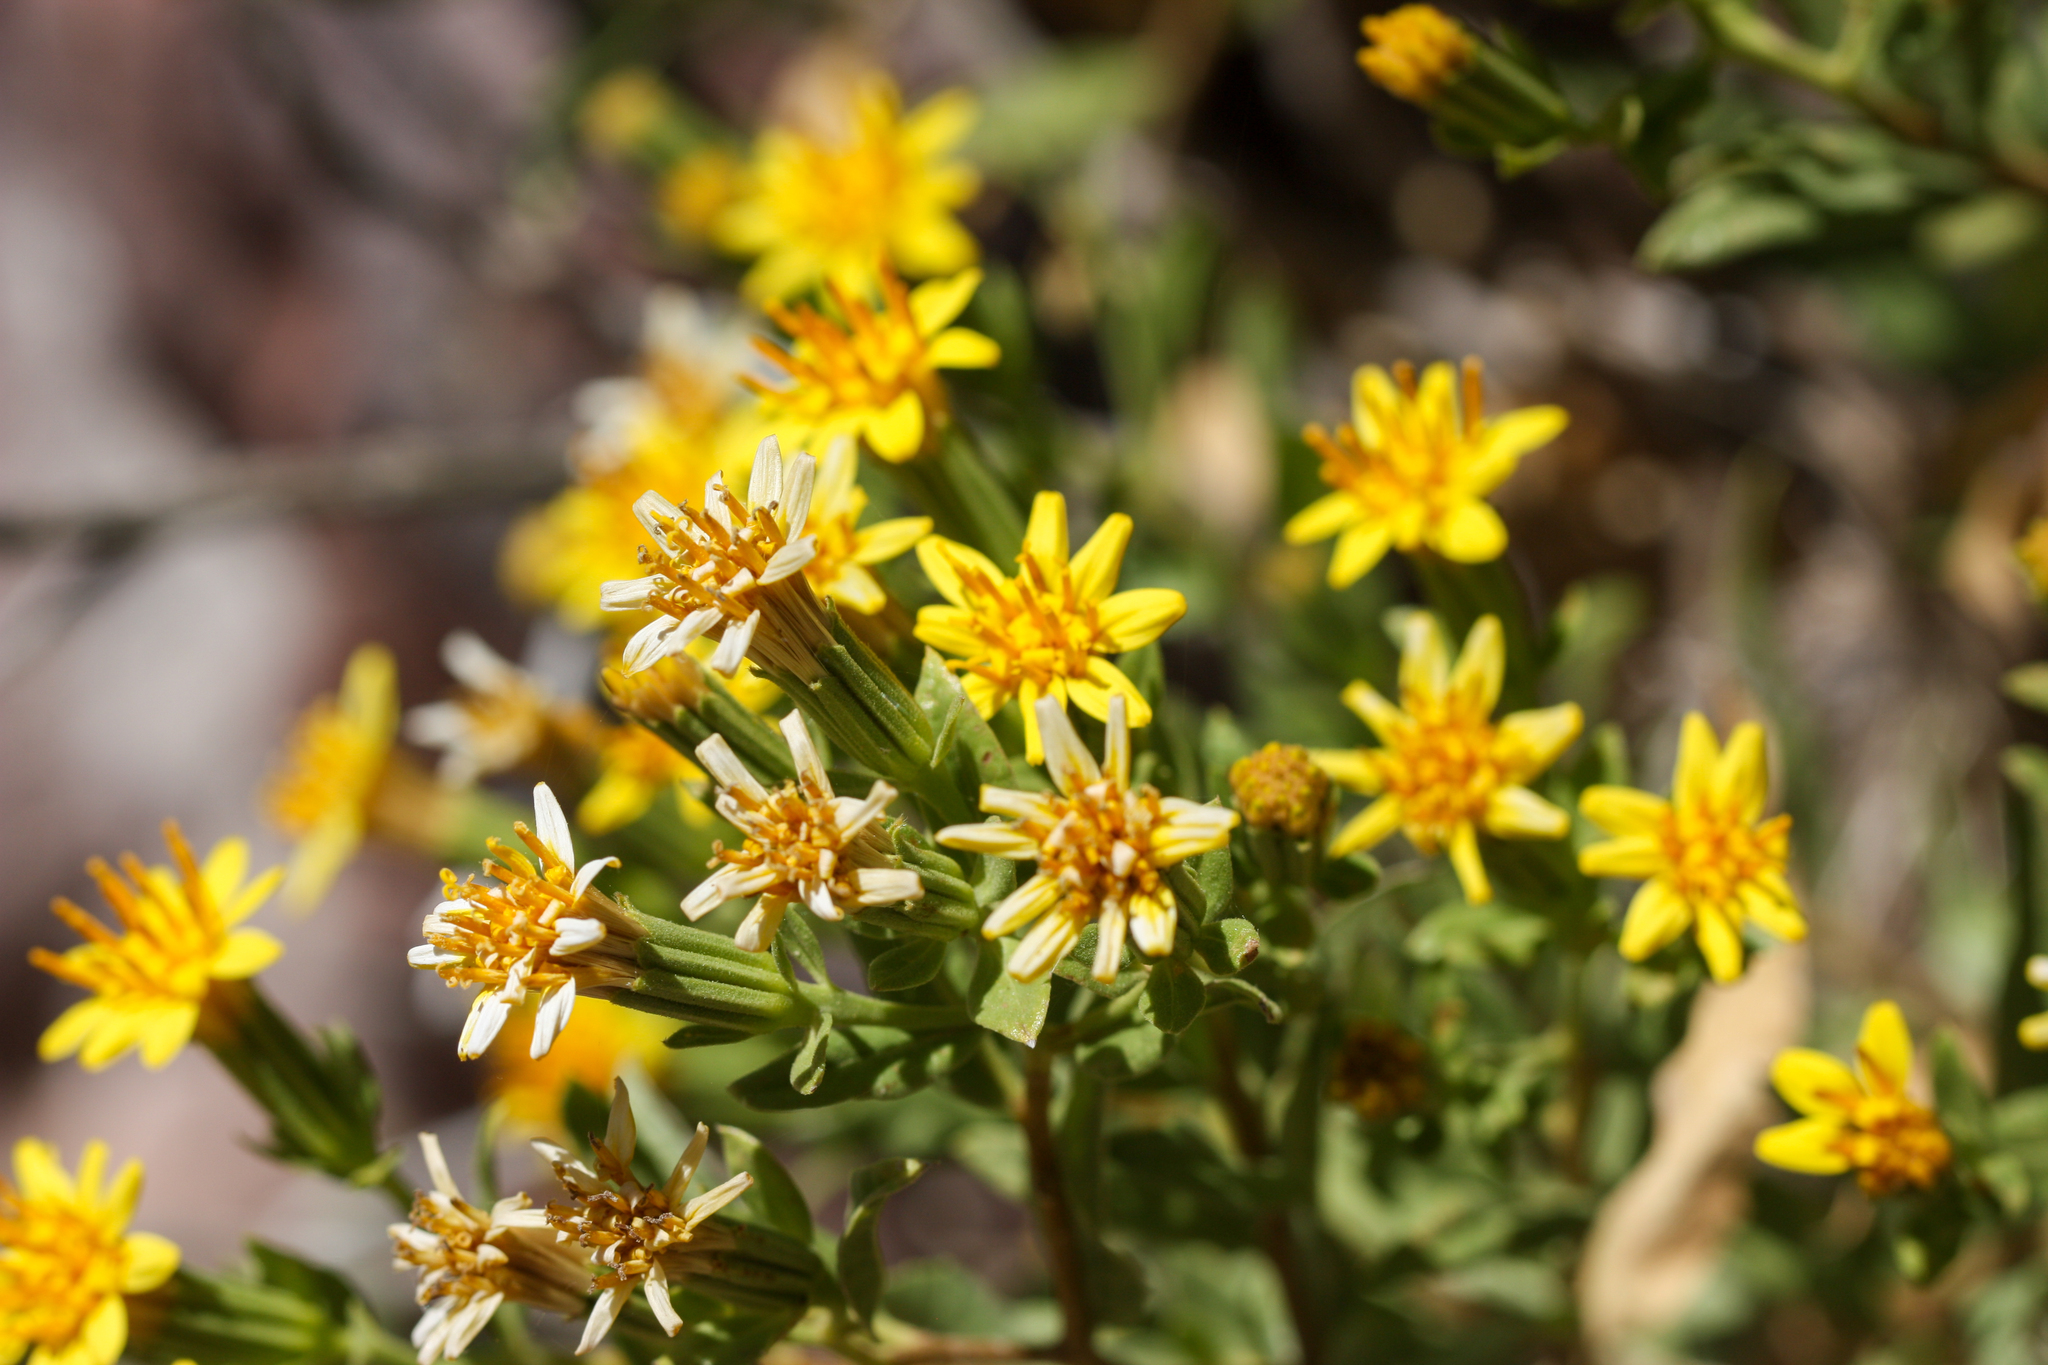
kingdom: Plantae
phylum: Tracheophyta
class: Magnoliopsida
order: Asterales
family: Asteraceae
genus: Trixis
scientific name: Trixis californica
